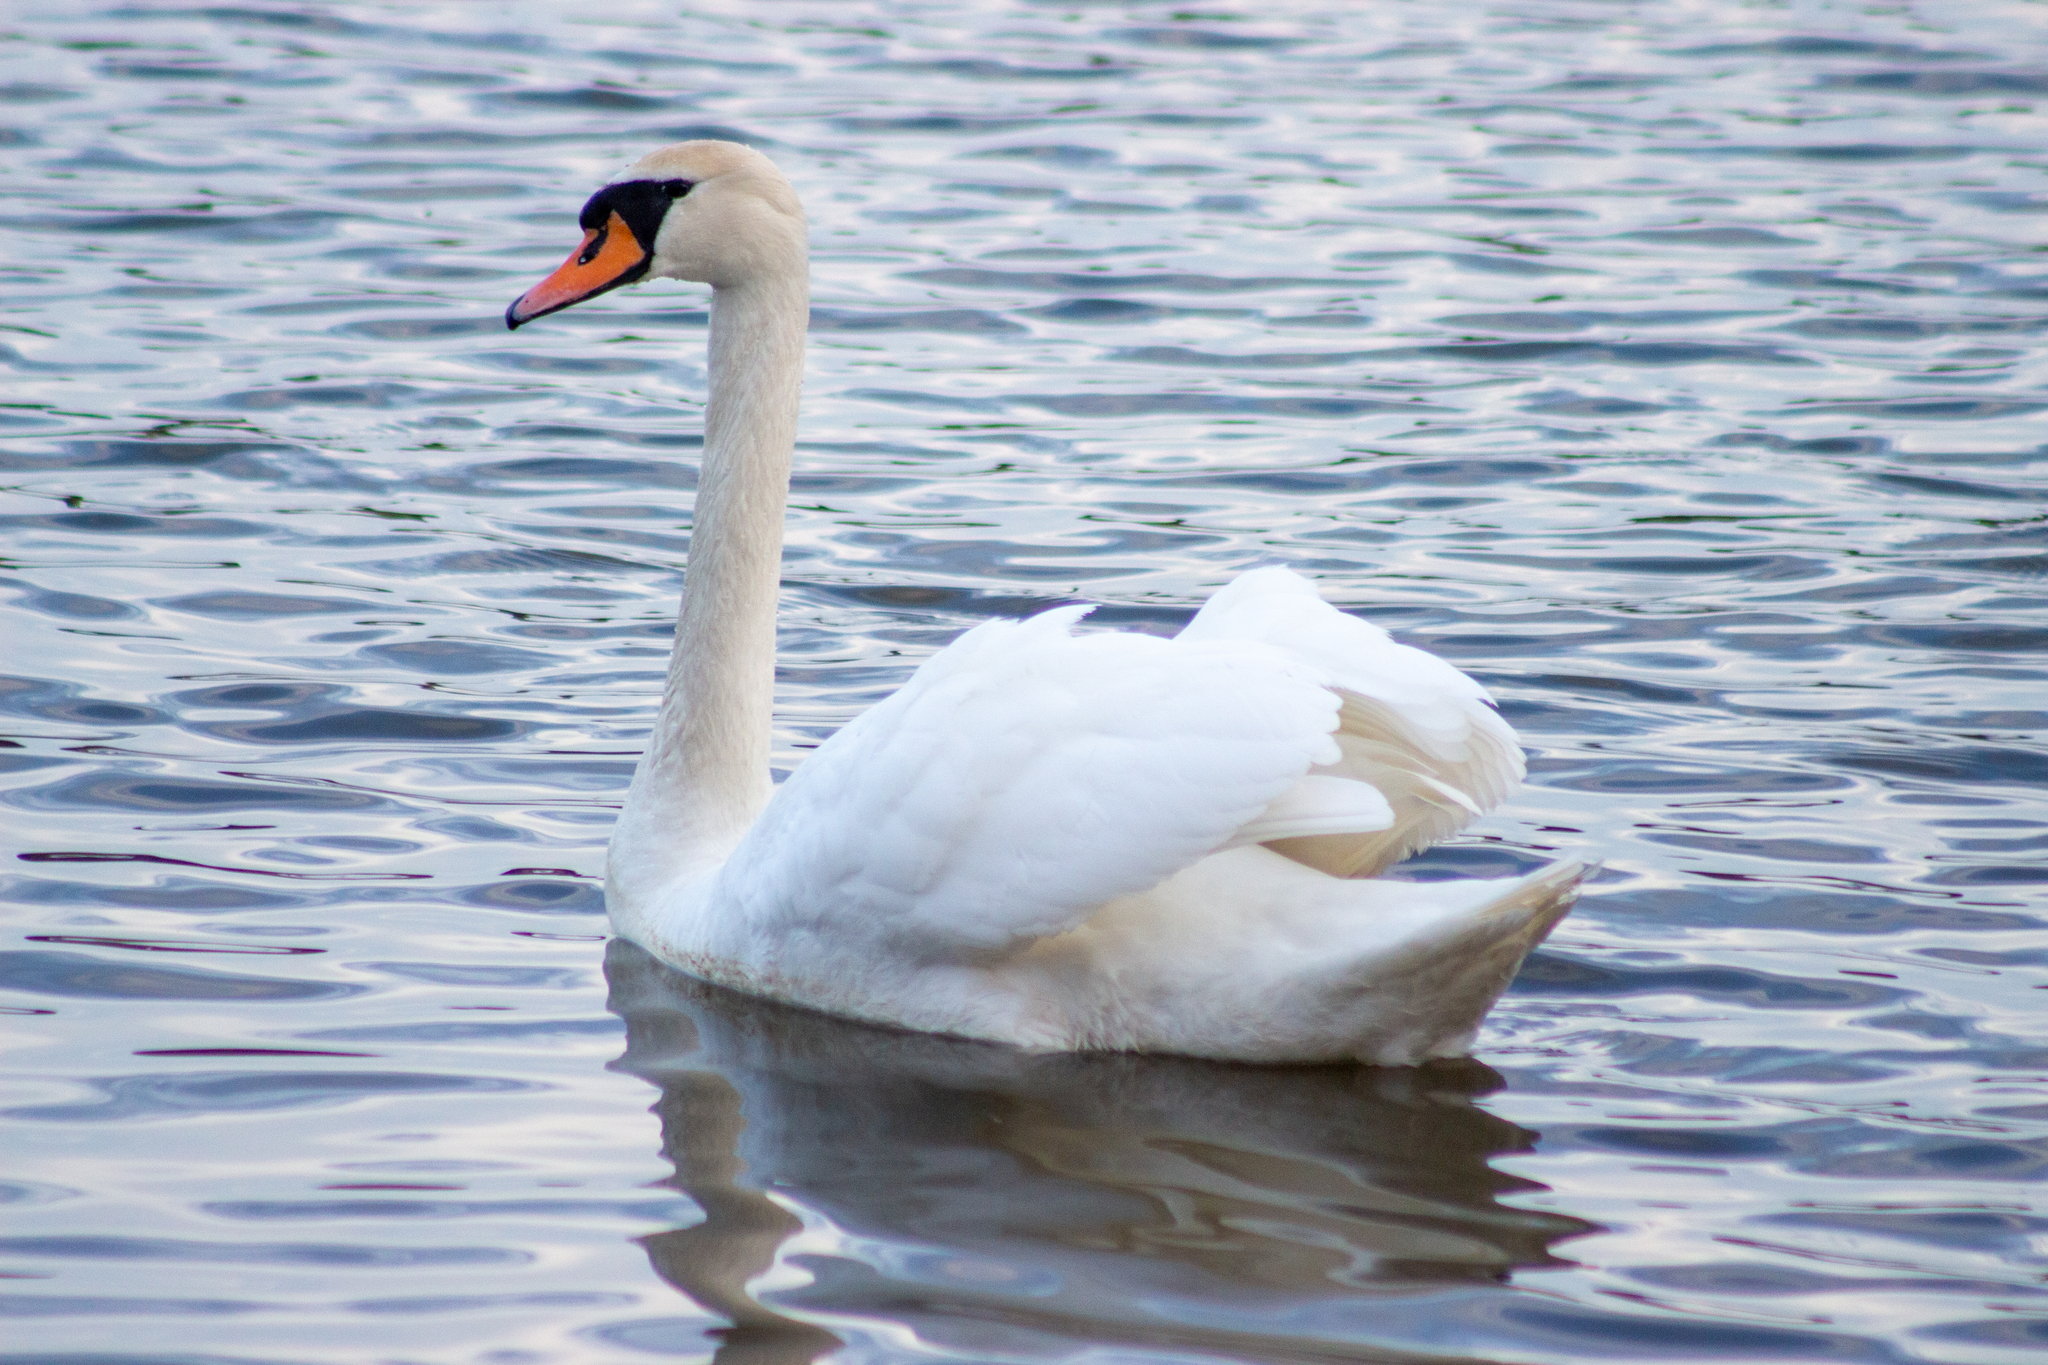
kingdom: Animalia
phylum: Chordata
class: Aves
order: Anseriformes
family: Anatidae
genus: Cygnus
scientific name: Cygnus olor
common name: Mute swan
